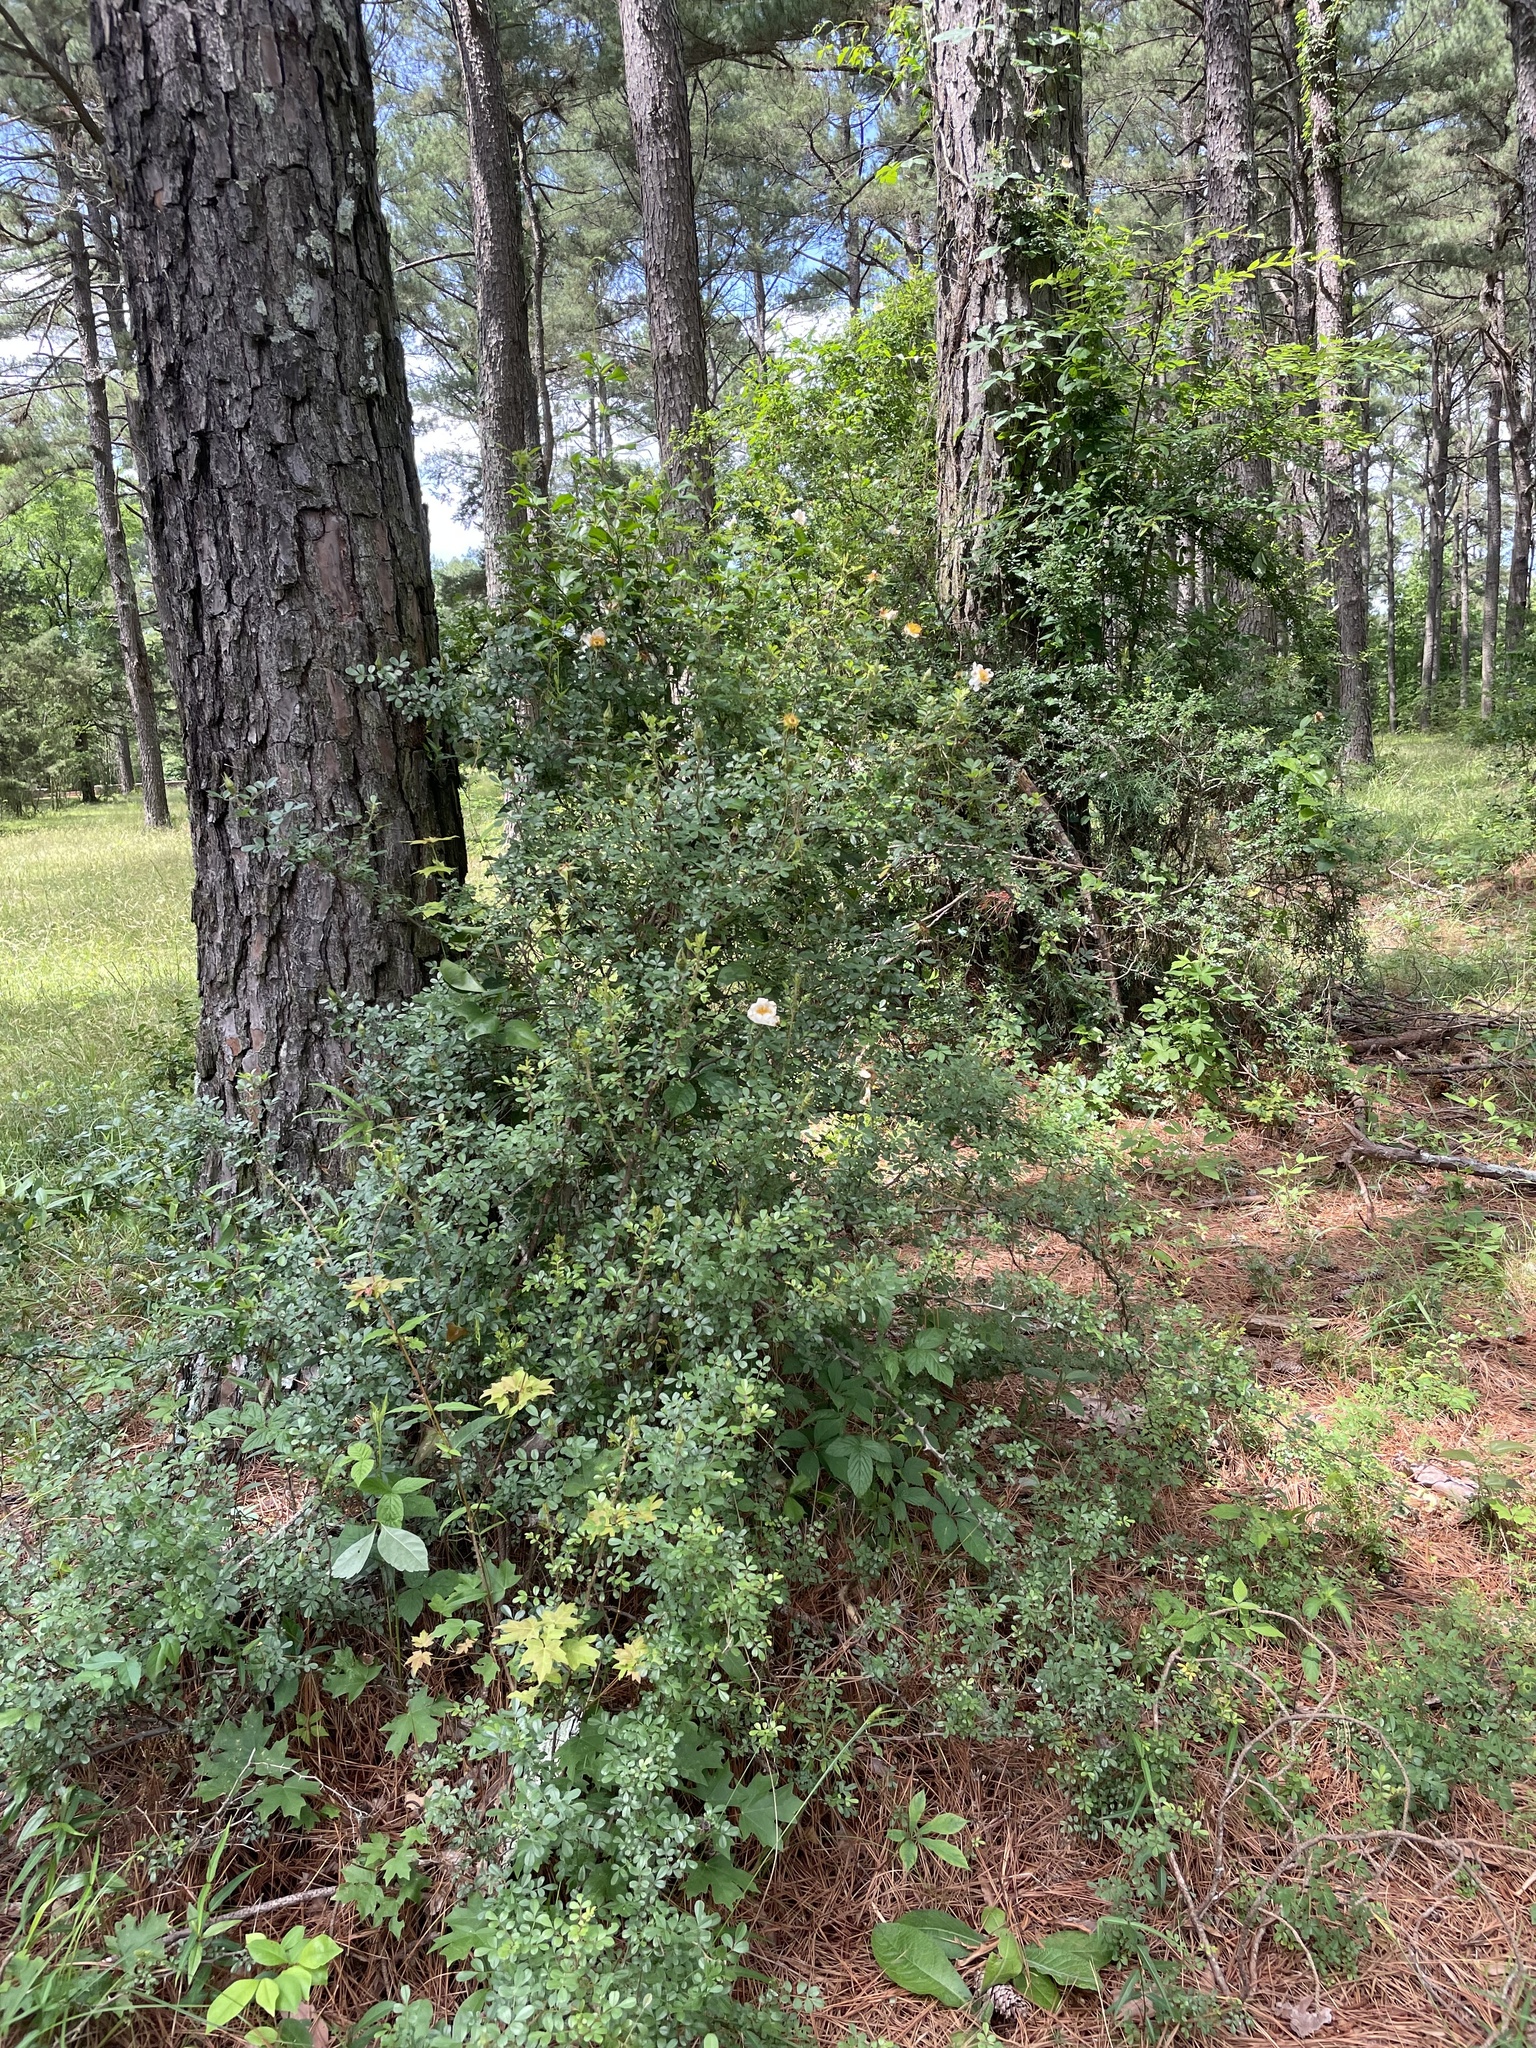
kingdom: Plantae
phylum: Tracheophyta
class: Magnoliopsida
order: Rosales
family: Rosaceae
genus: Rosa
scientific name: Rosa bracteata
